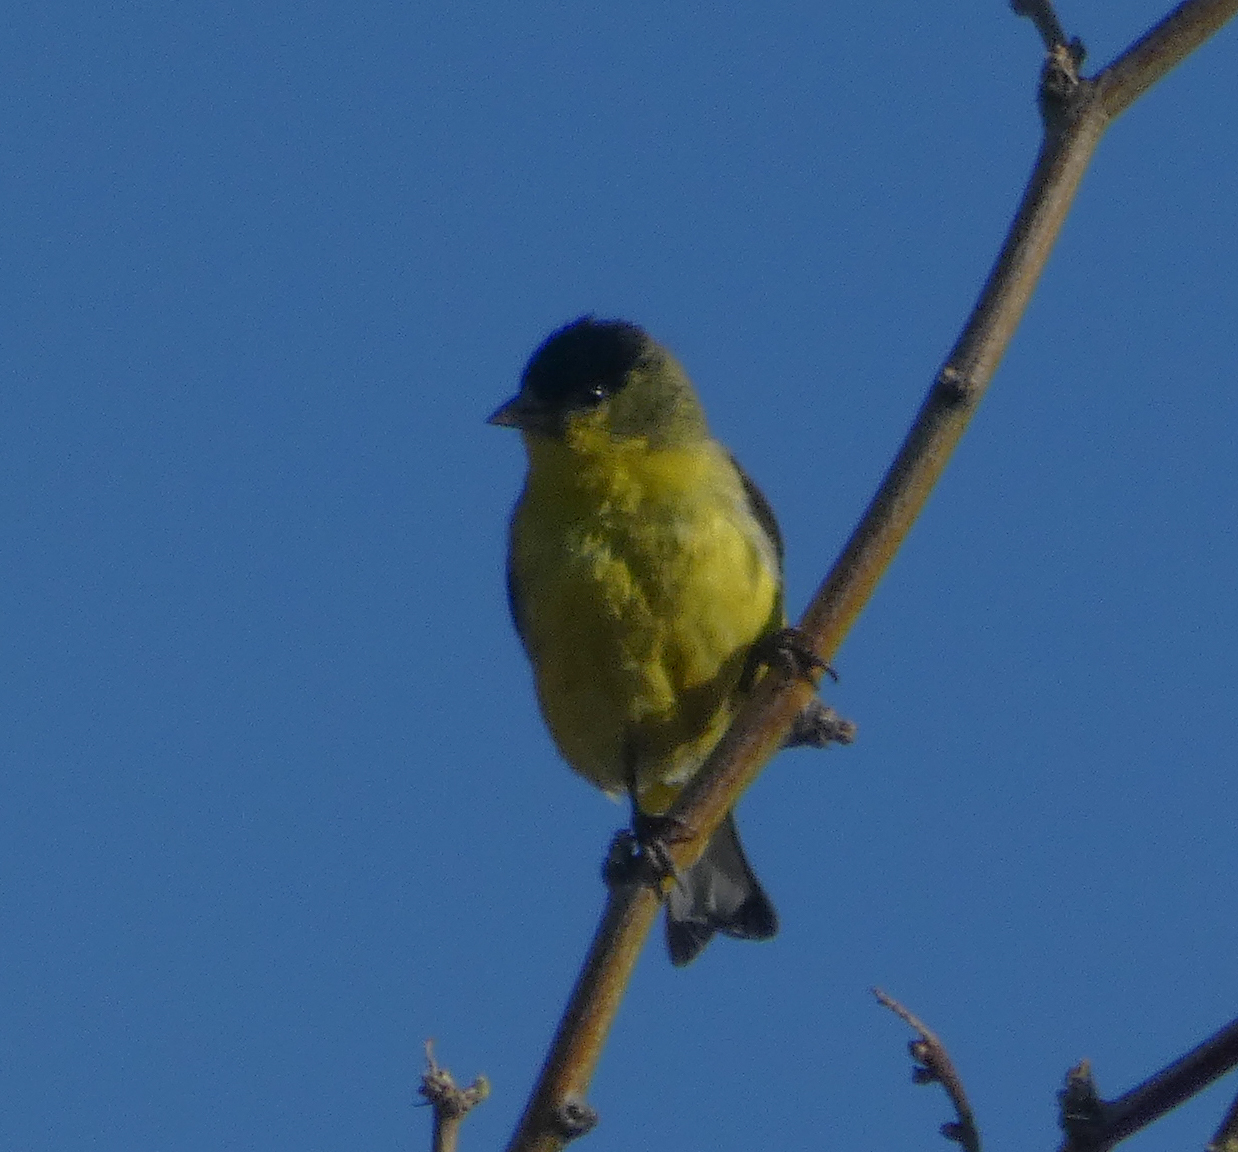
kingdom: Animalia
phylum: Chordata
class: Aves
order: Passeriformes
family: Fringillidae
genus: Spinus
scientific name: Spinus psaltria
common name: Lesser goldfinch
